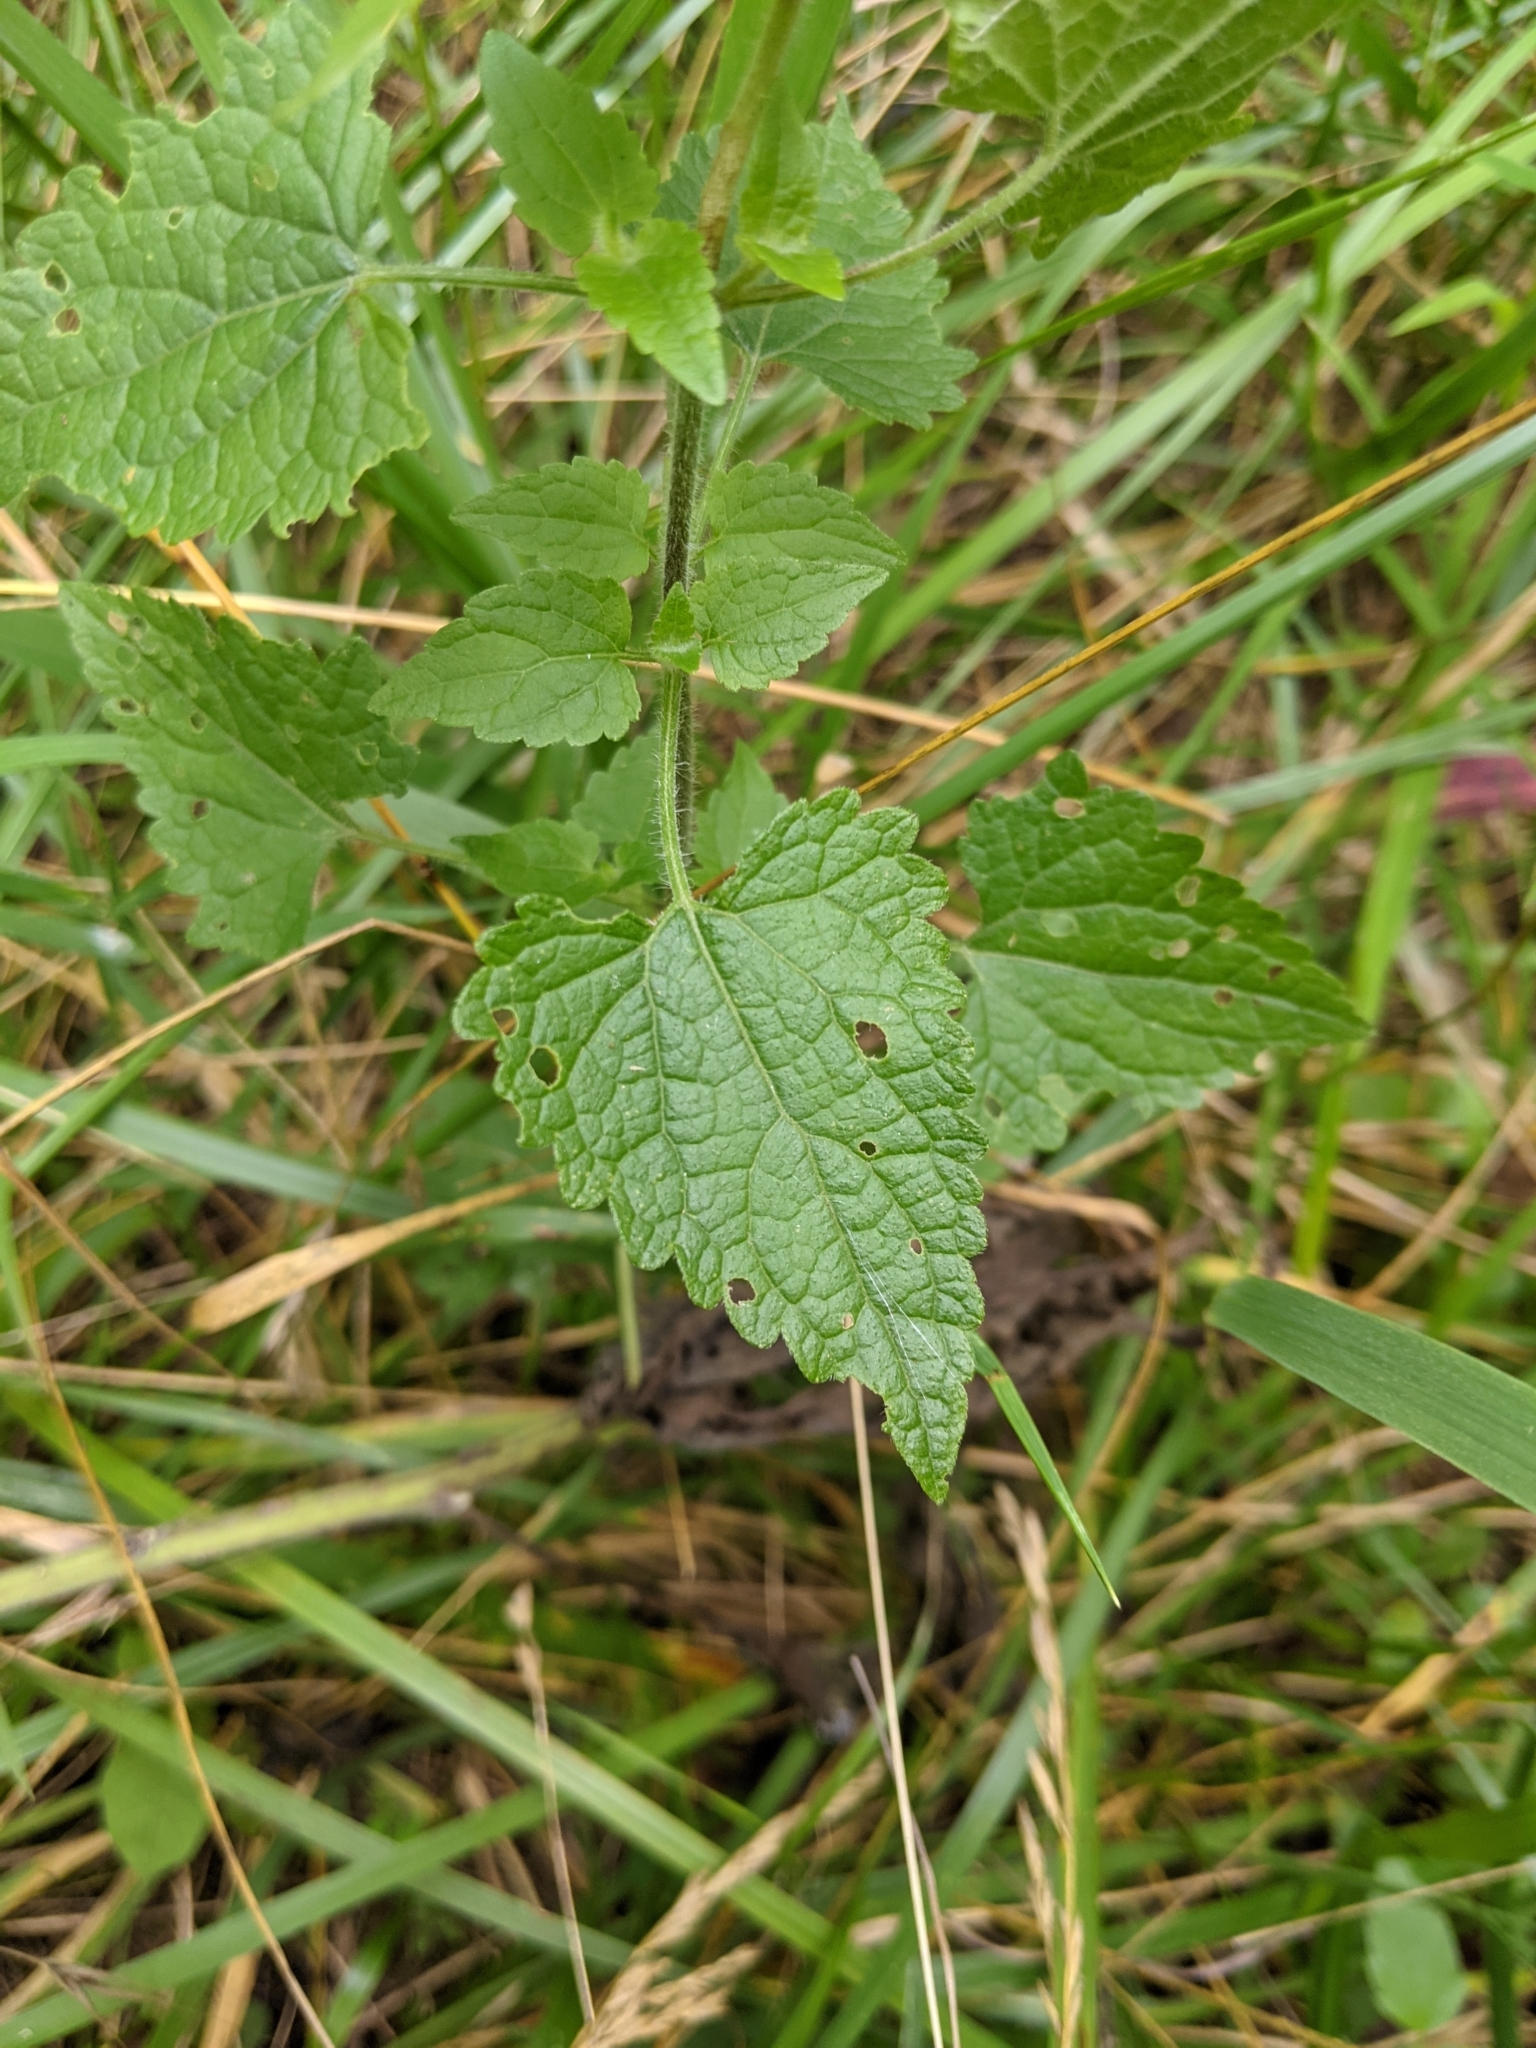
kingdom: Plantae
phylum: Tracheophyta
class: Magnoliopsida
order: Asterales
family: Asteraceae
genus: Fleischmannia
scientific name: Fleischmannia incarnata
